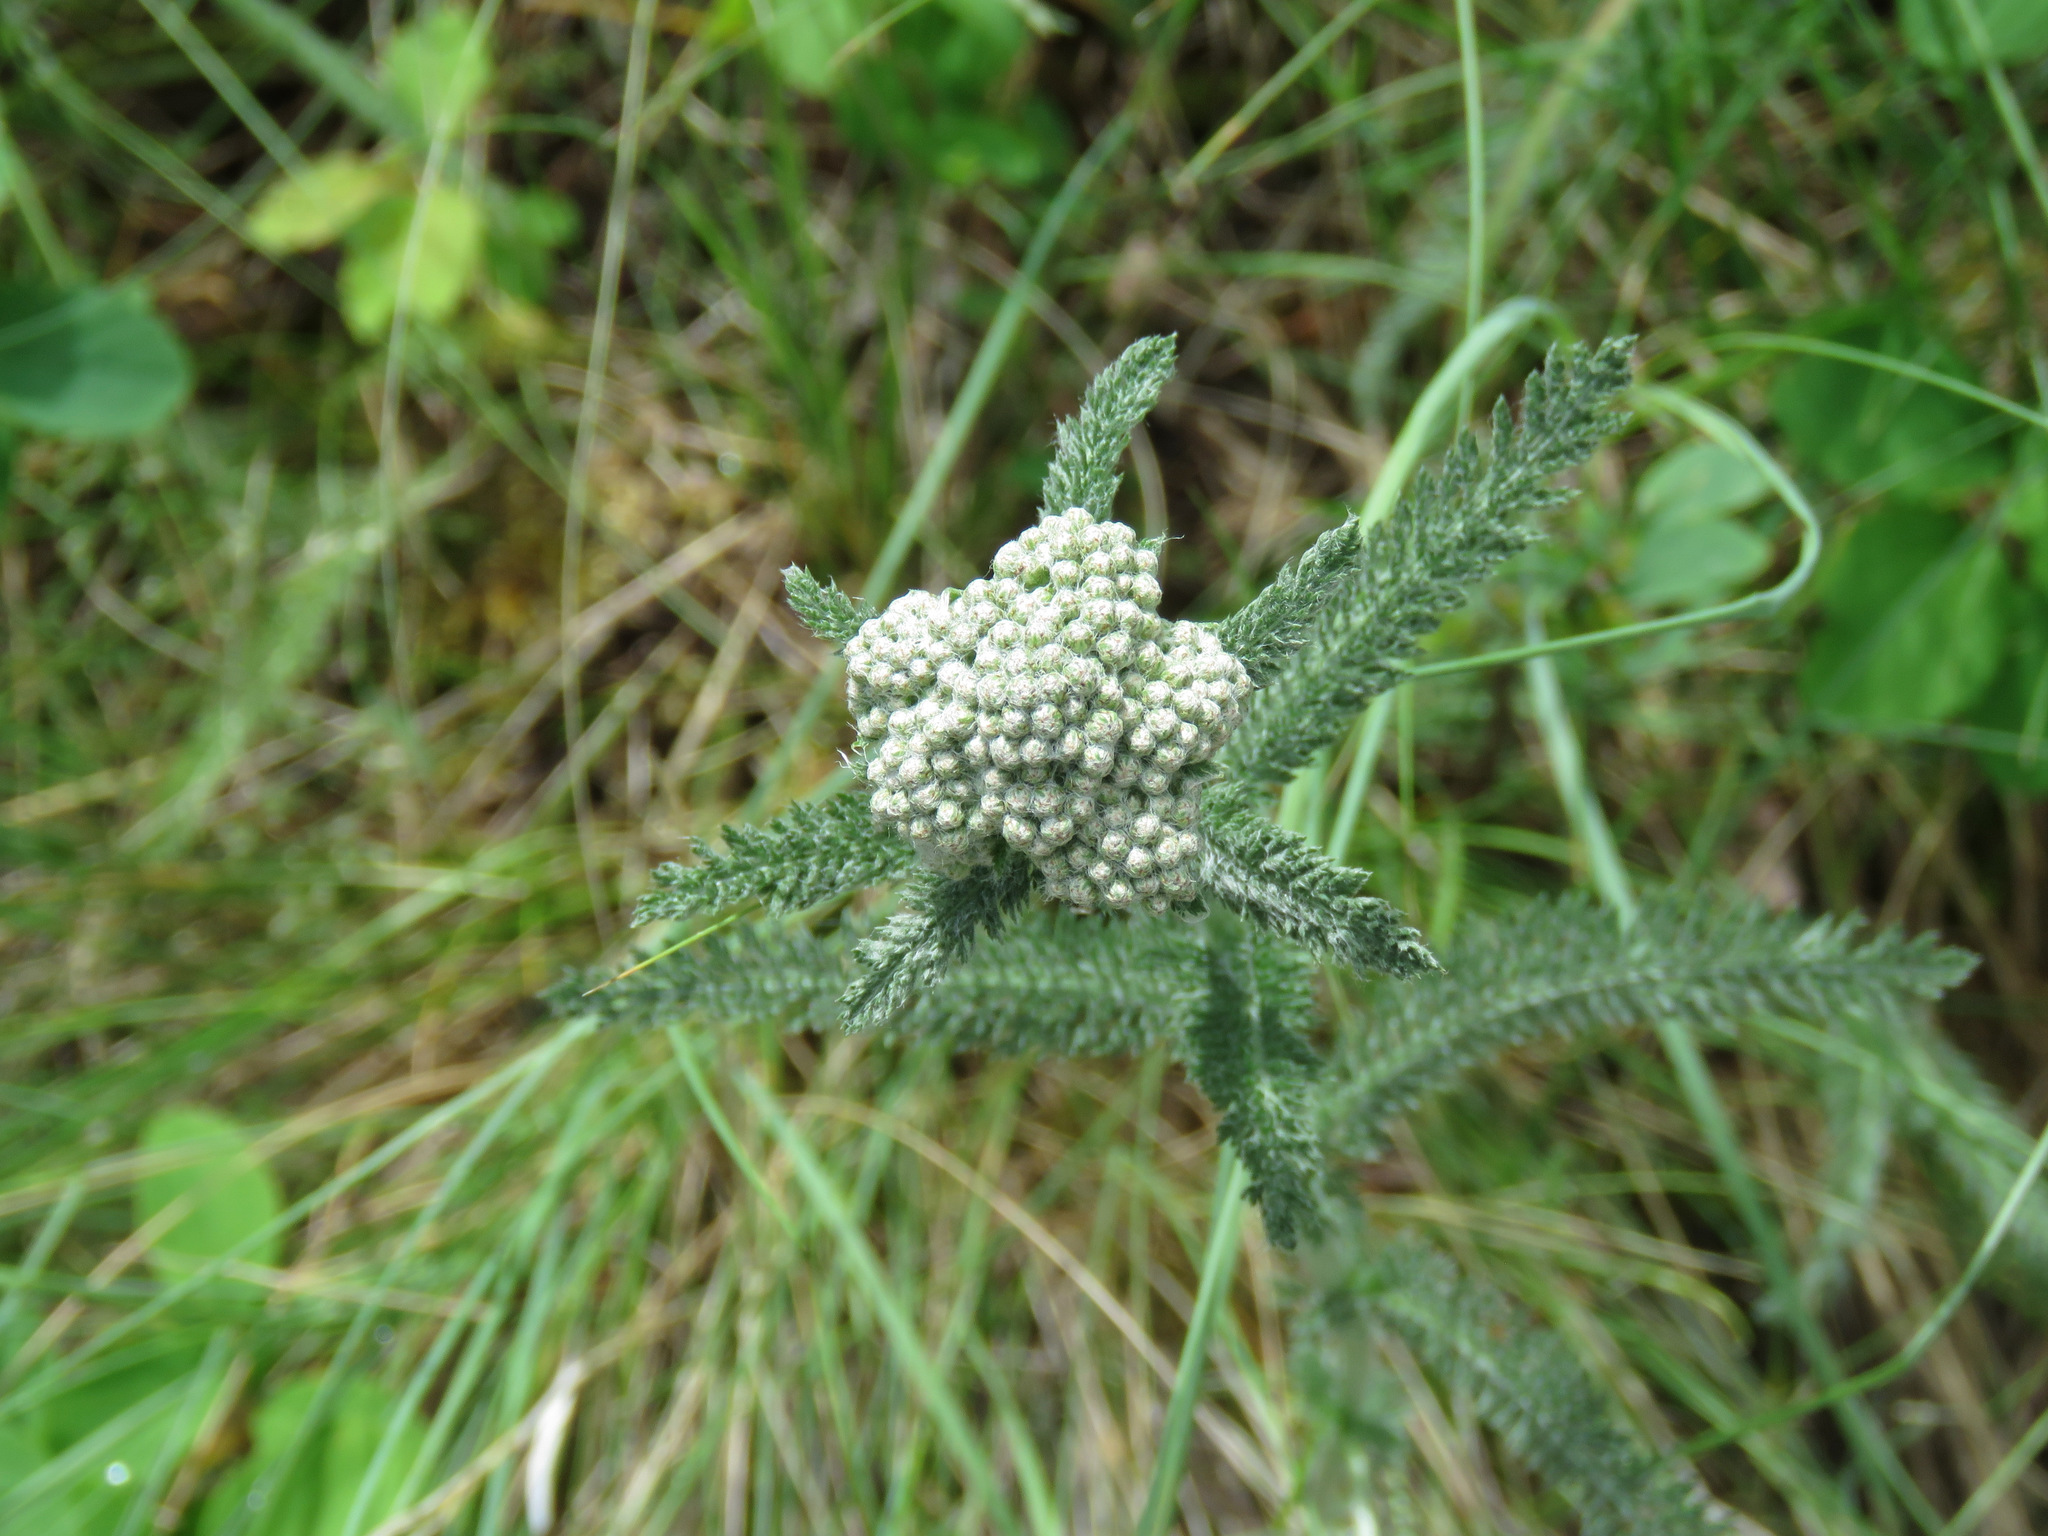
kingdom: Plantae
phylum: Tracheophyta
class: Magnoliopsida
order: Asterales
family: Asteraceae
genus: Achillea
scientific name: Achillea millefolium
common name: Yarrow
